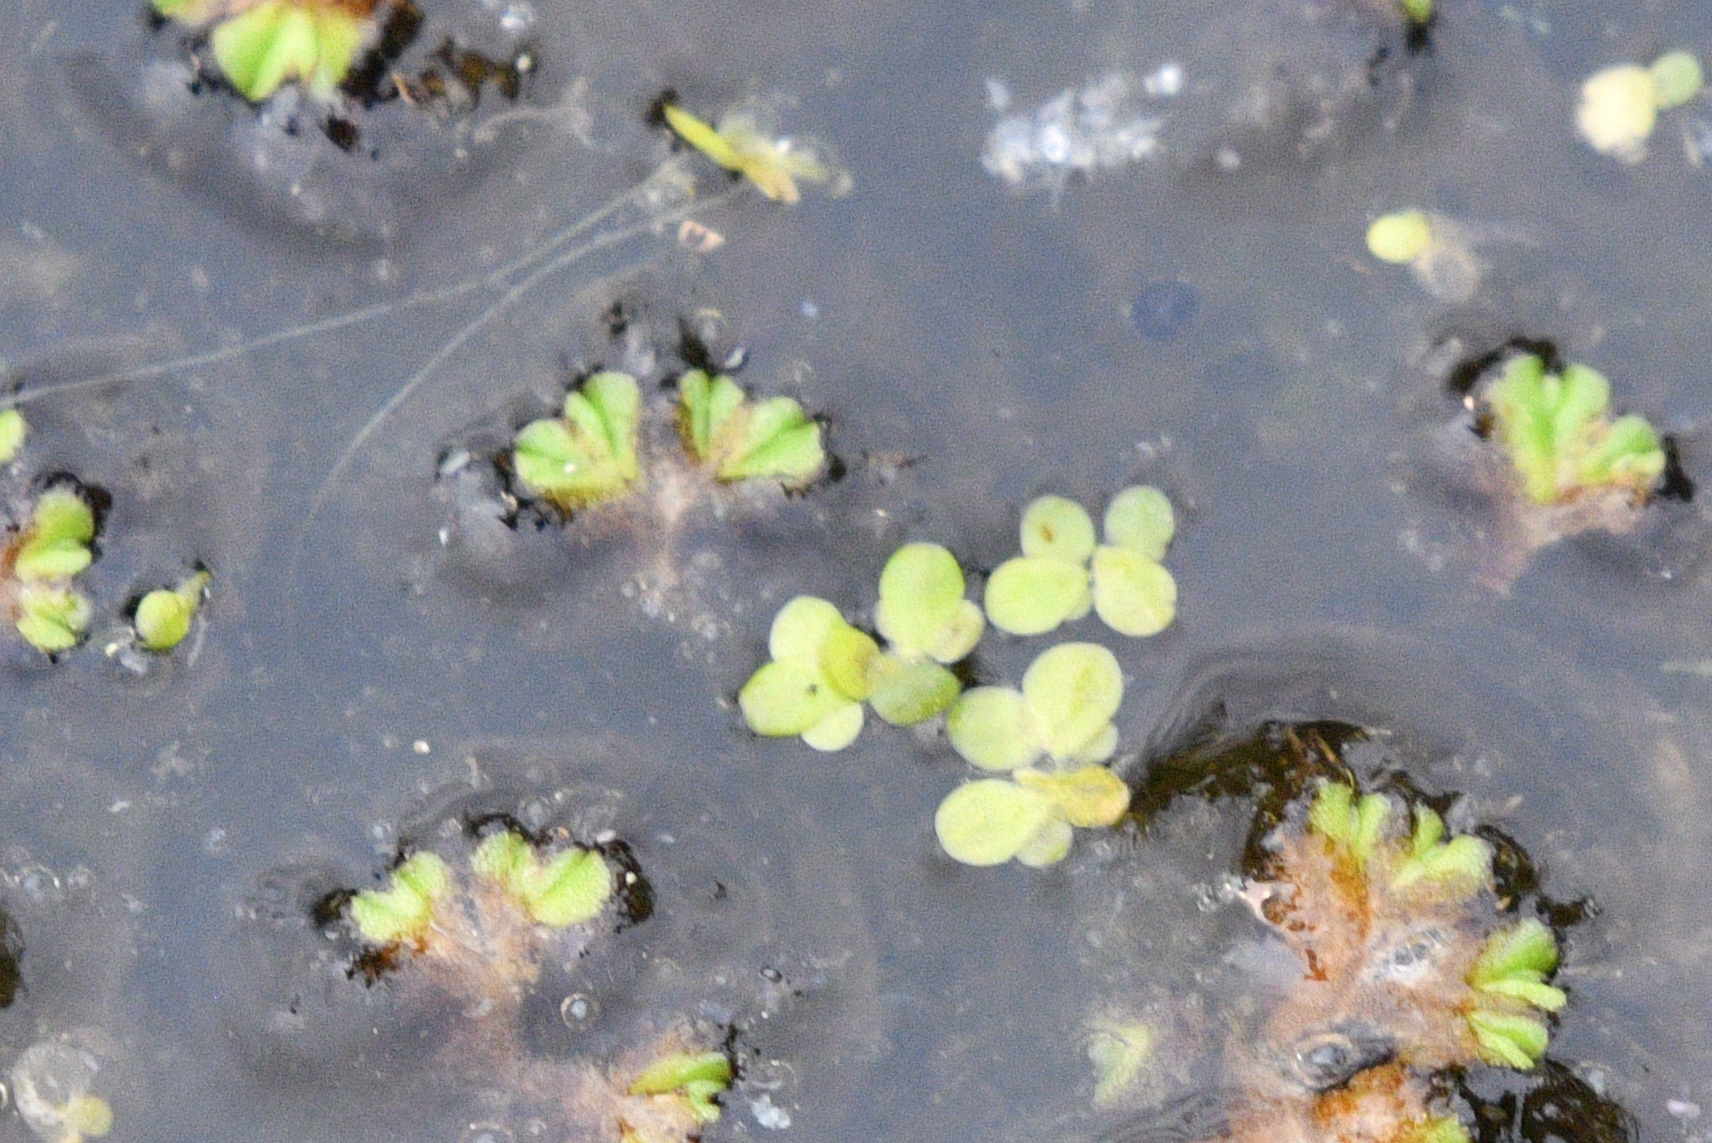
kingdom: Plantae
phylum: Marchantiophyta
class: Marchantiopsida
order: Marchantiales
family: Ricciaceae
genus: Ricciocarpos
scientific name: Ricciocarpos natans
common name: Purple-fringed liverwort
